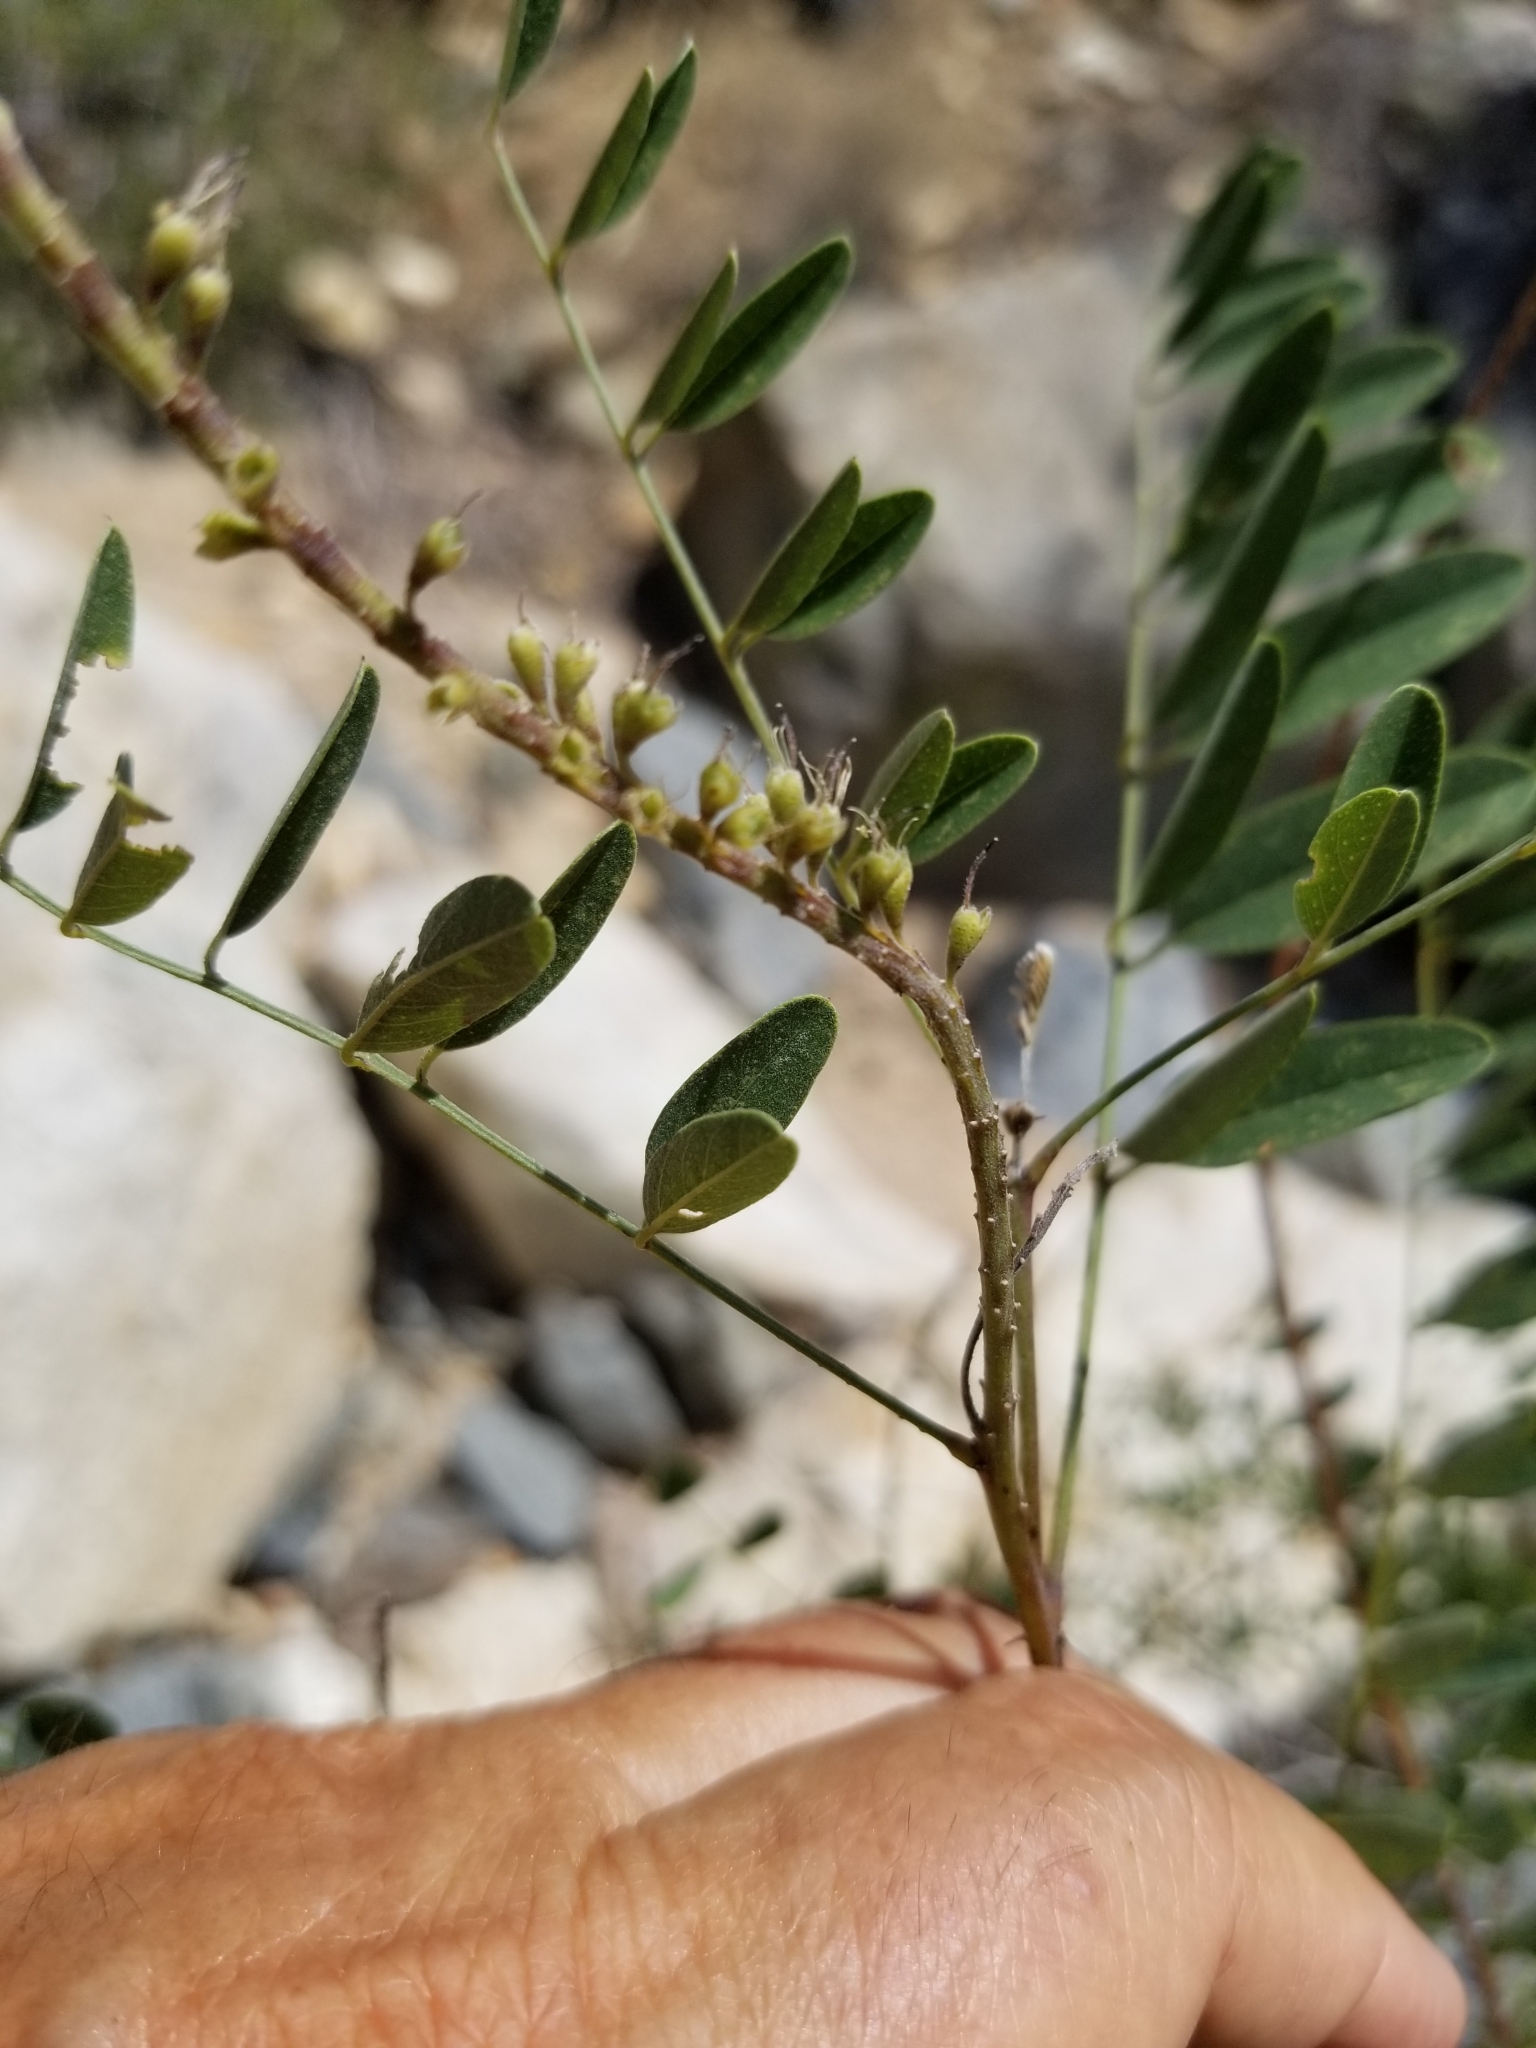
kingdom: Plantae
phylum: Tracheophyta
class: Magnoliopsida
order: Fabales
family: Fabaceae
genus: Amorpha
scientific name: Amorpha fruticosa
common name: False indigo
